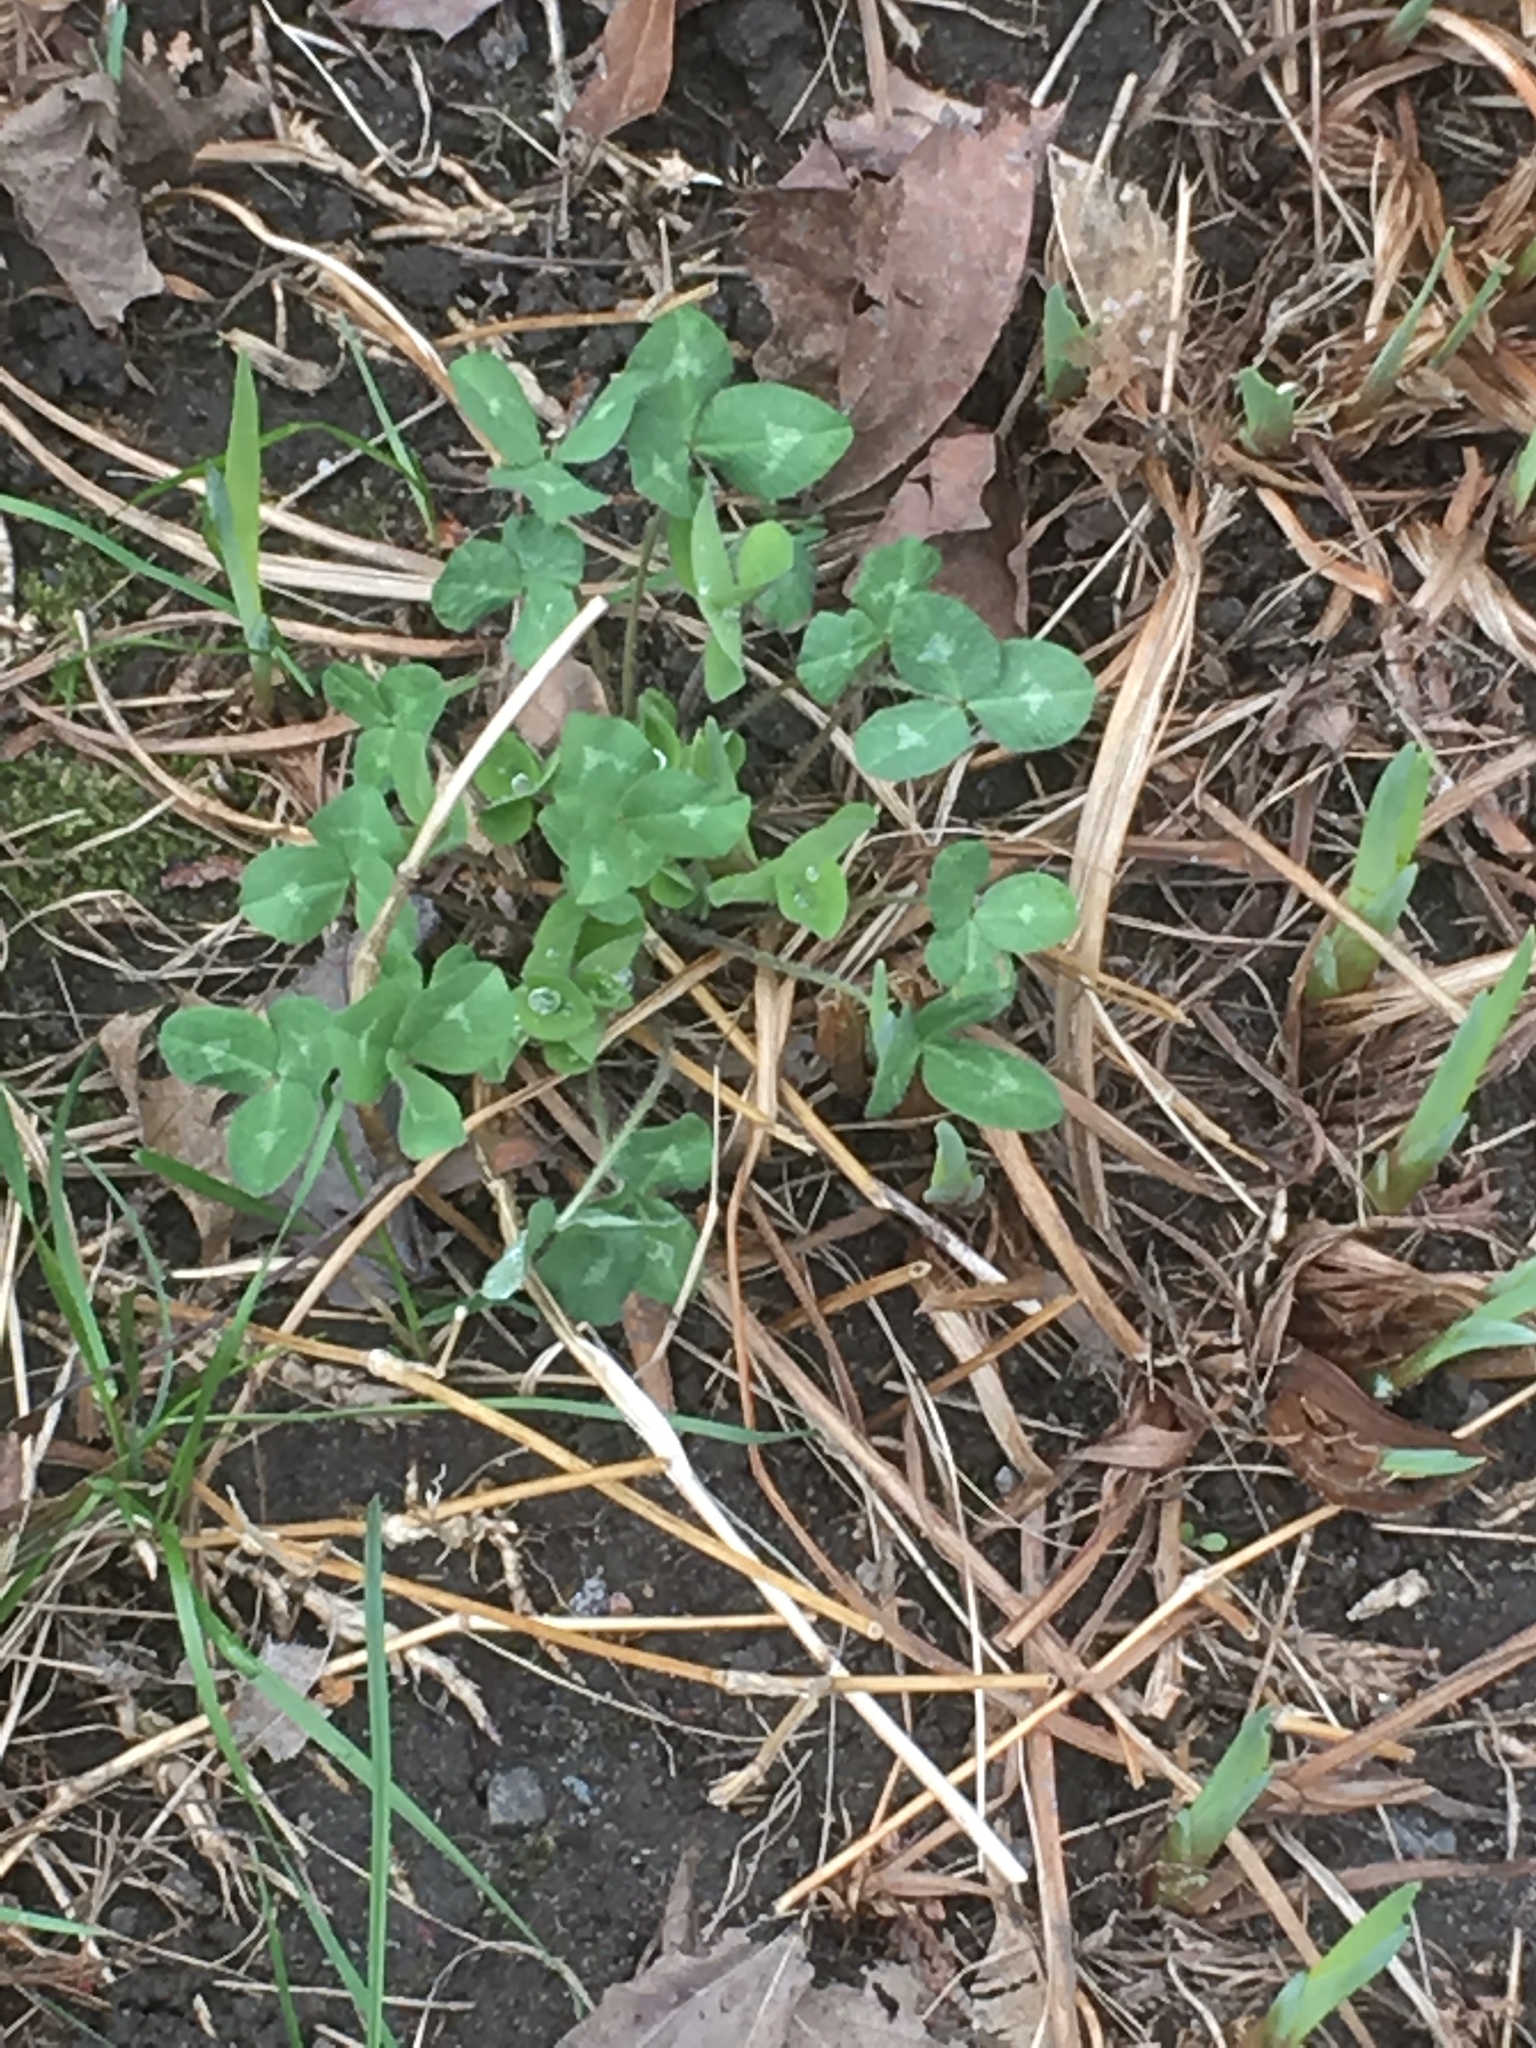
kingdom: Plantae
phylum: Tracheophyta
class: Magnoliopsida
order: Fabales
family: Fabaceae
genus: Trifolium
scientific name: Trifolium pratense
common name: Red clover
